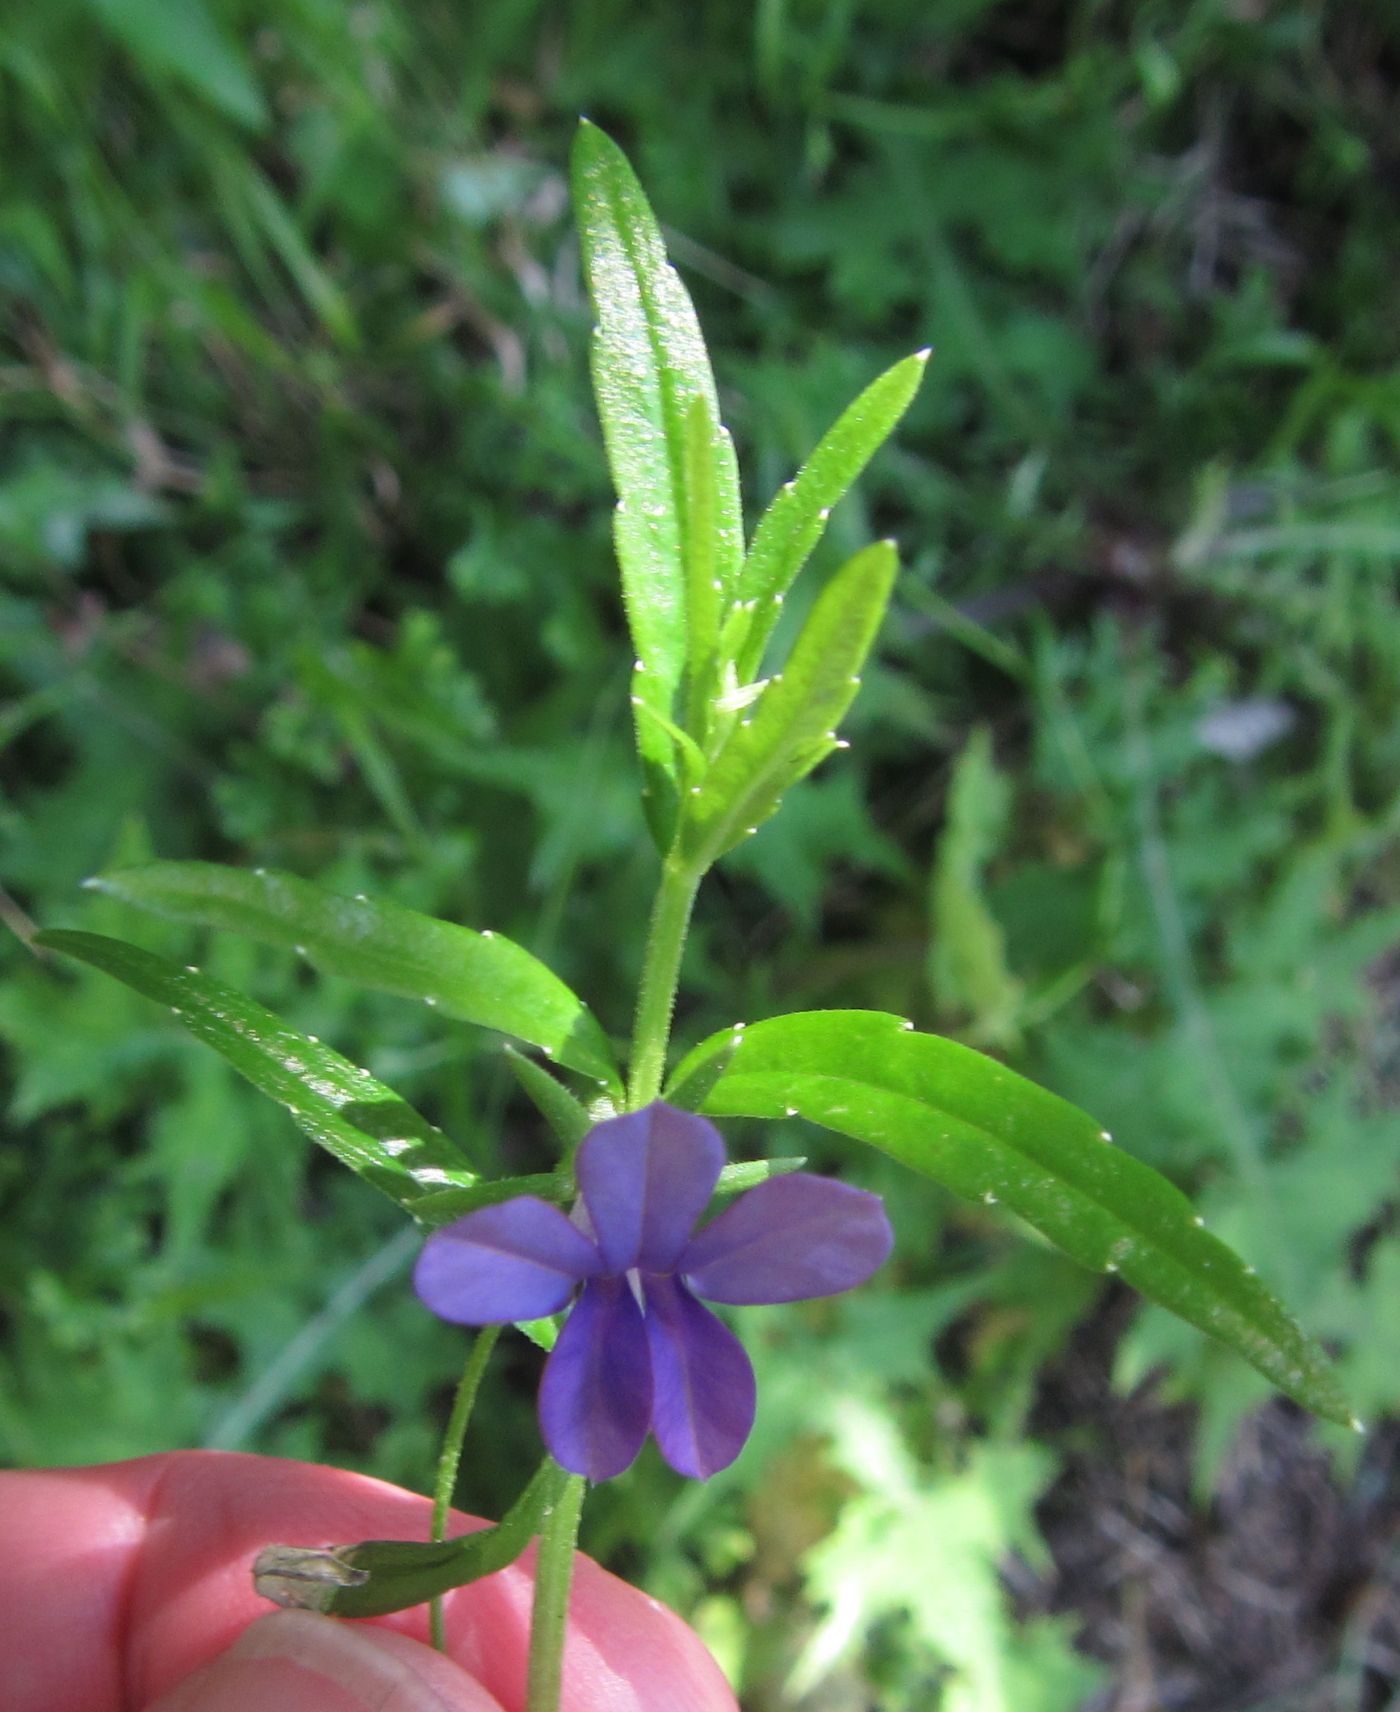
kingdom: Plantae
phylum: Tracheophyta
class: Magnoliopsida
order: Asterales
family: Campanulaceae
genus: Monopsis
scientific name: Monopsis stellarioides
